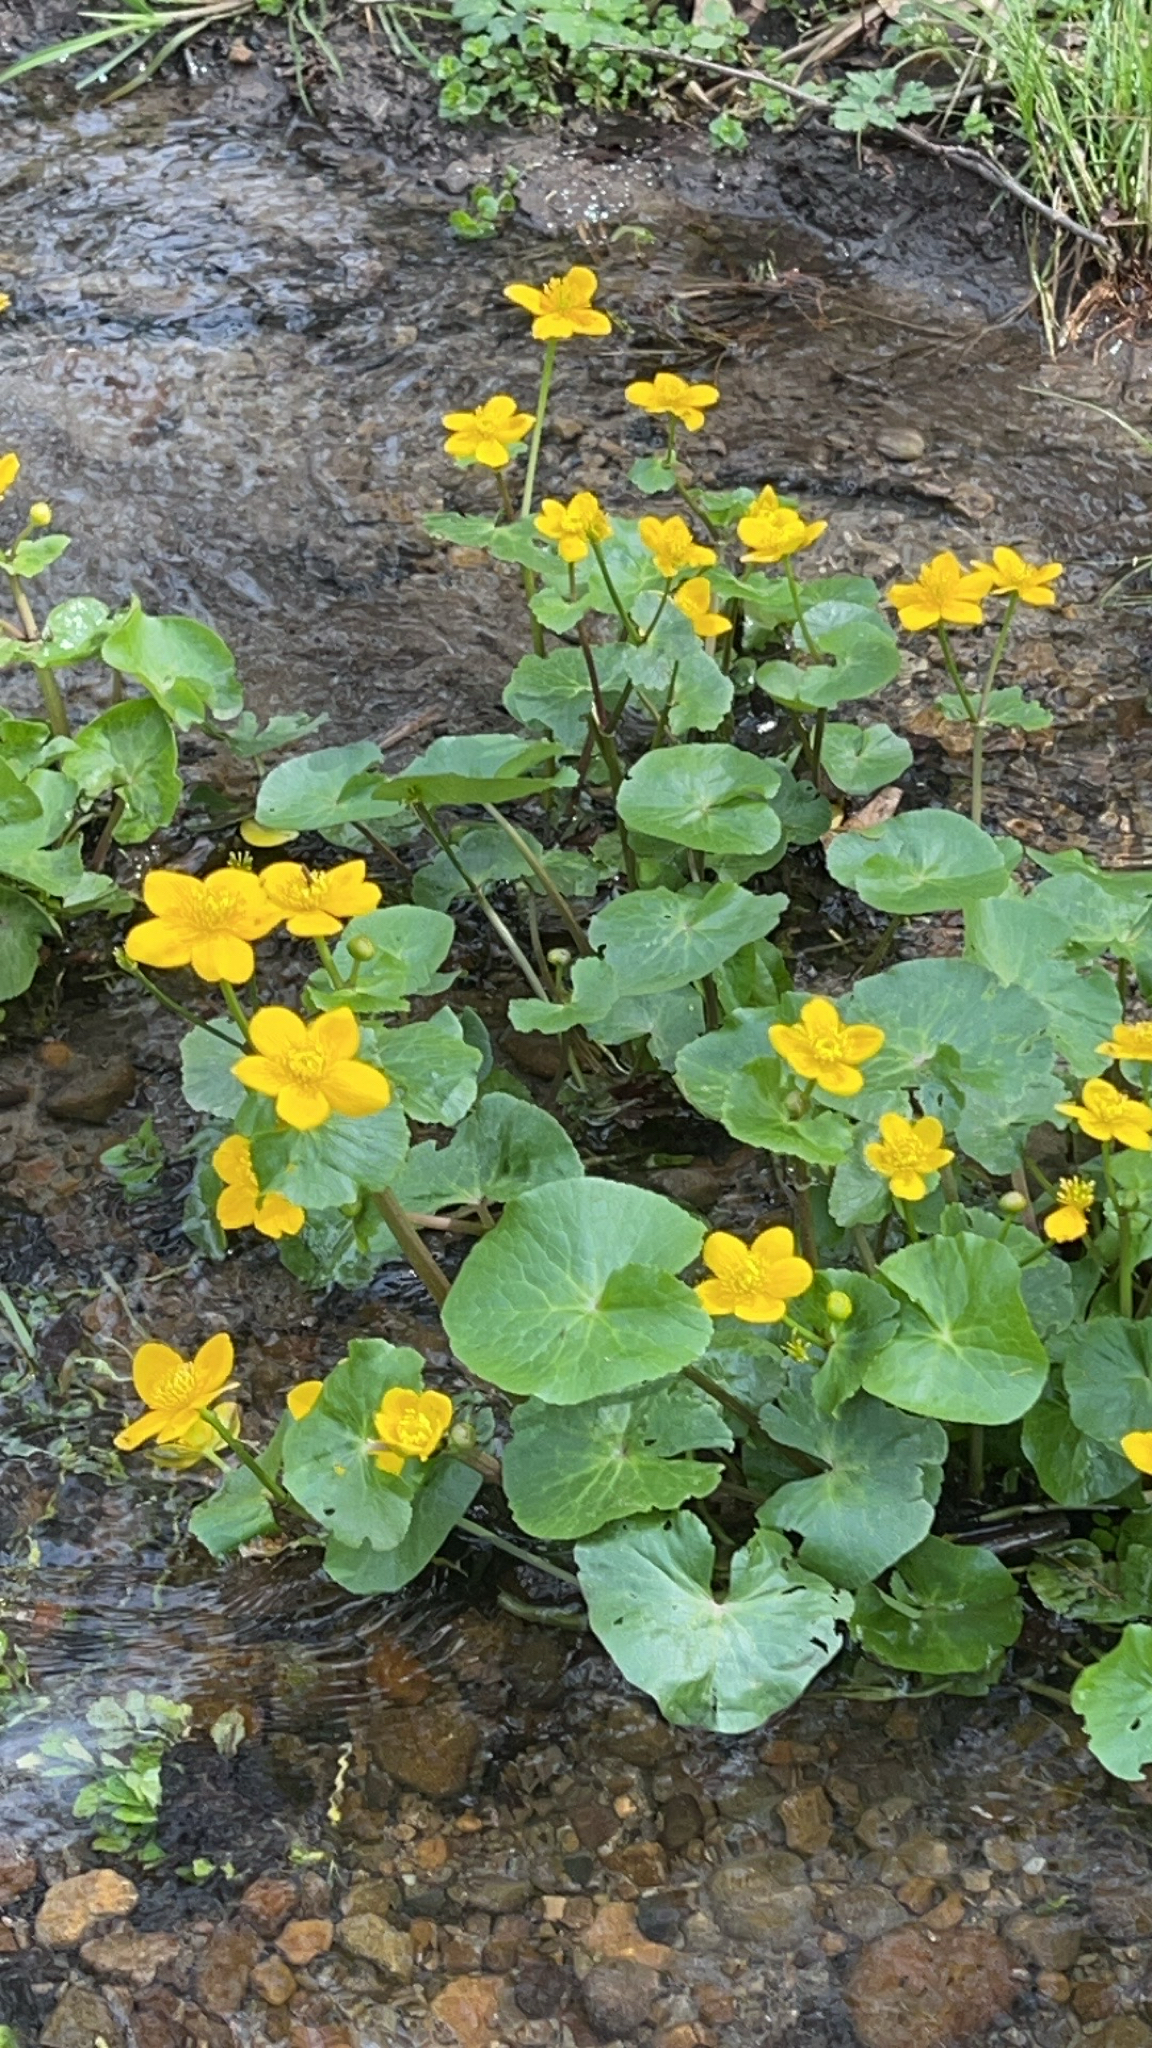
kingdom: Plantae
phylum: Tracheophyta
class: Magnoliopsida
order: Ranunculales
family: Ranunculaceae
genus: Caltha
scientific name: Caltha palustris
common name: Marsh marigold
